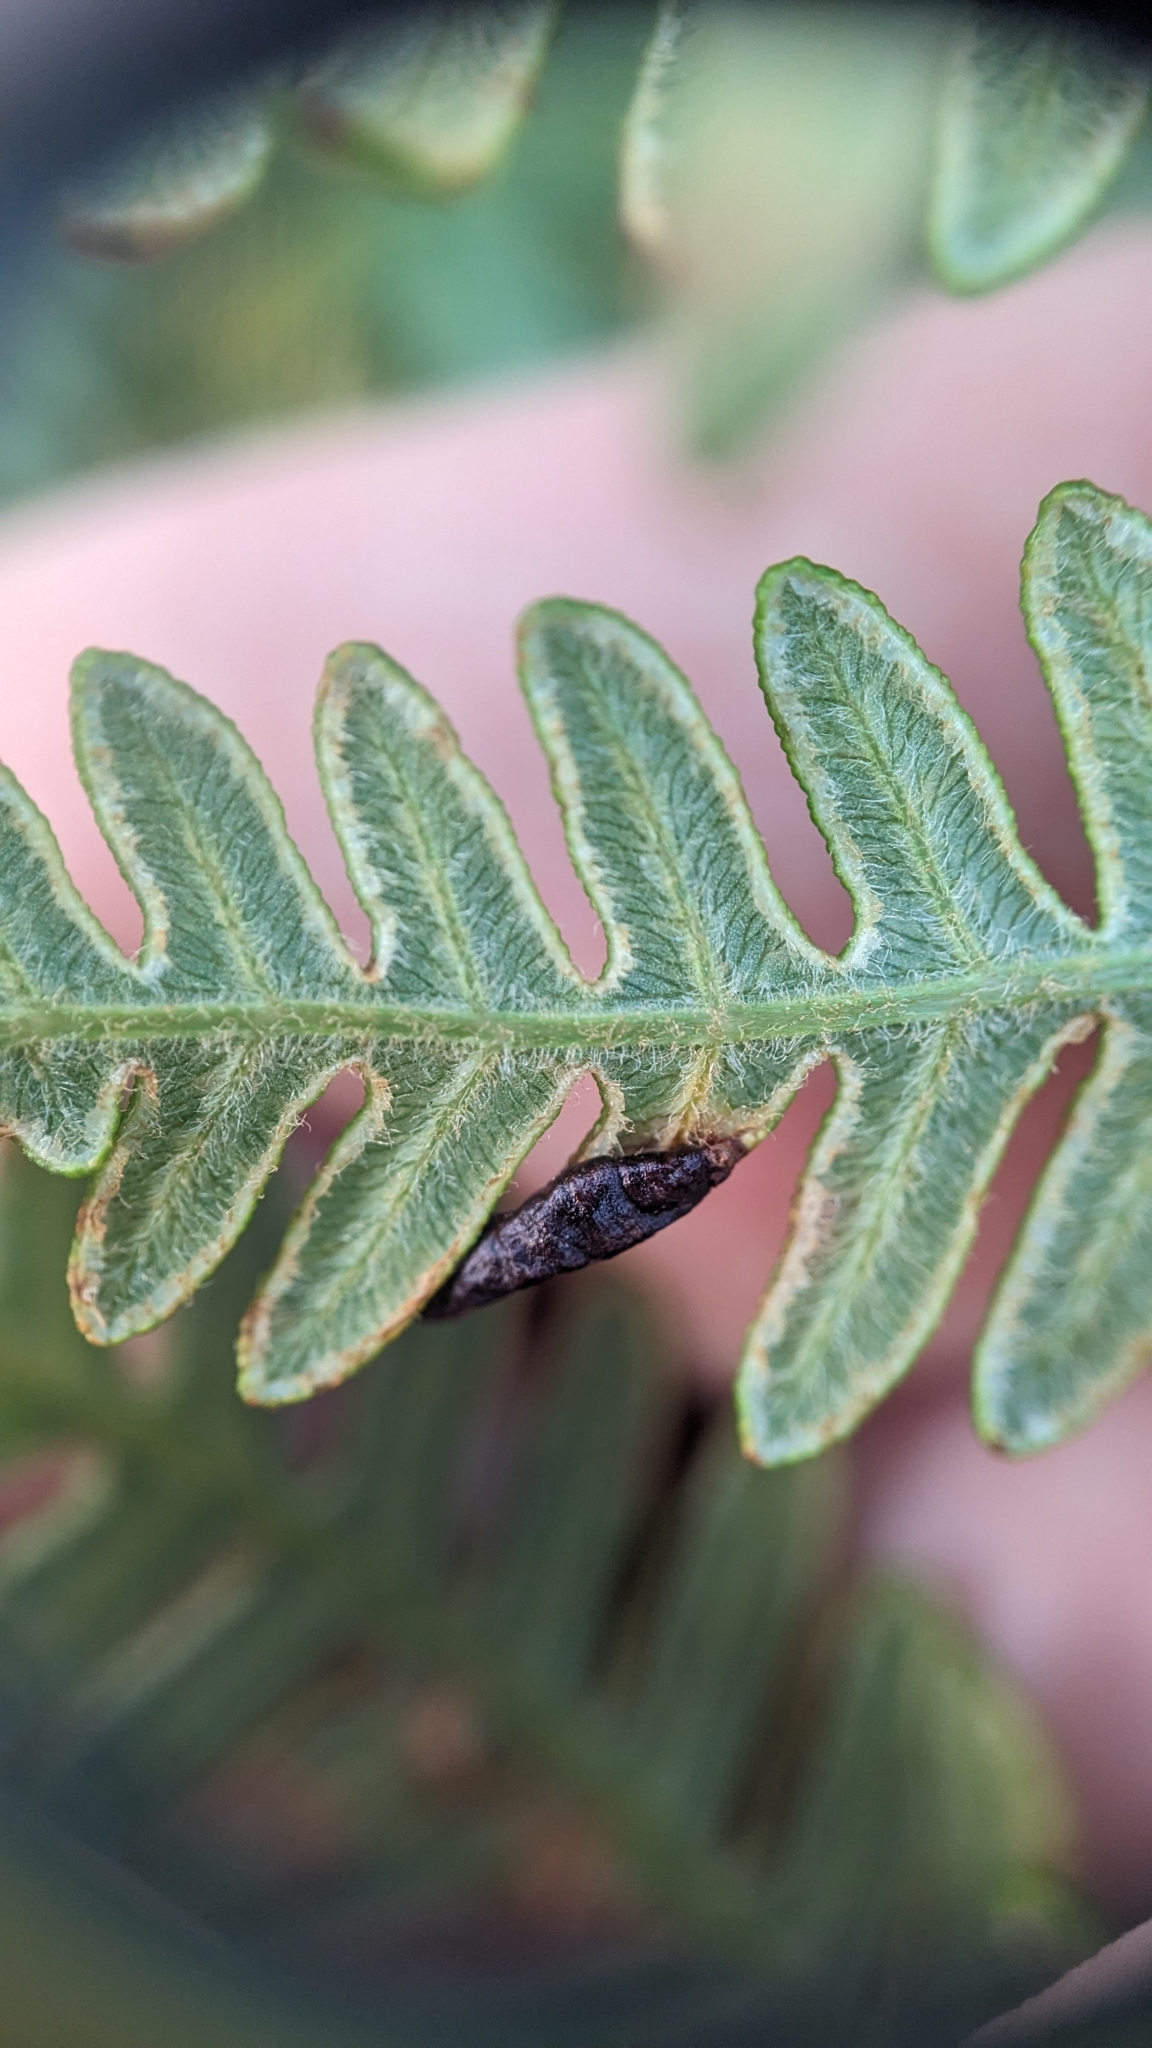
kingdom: Animalia
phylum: Arthropoda
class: Insecta
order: Diptera
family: Cecidomyiidae
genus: Dasineura
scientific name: Dasineura pteridis
